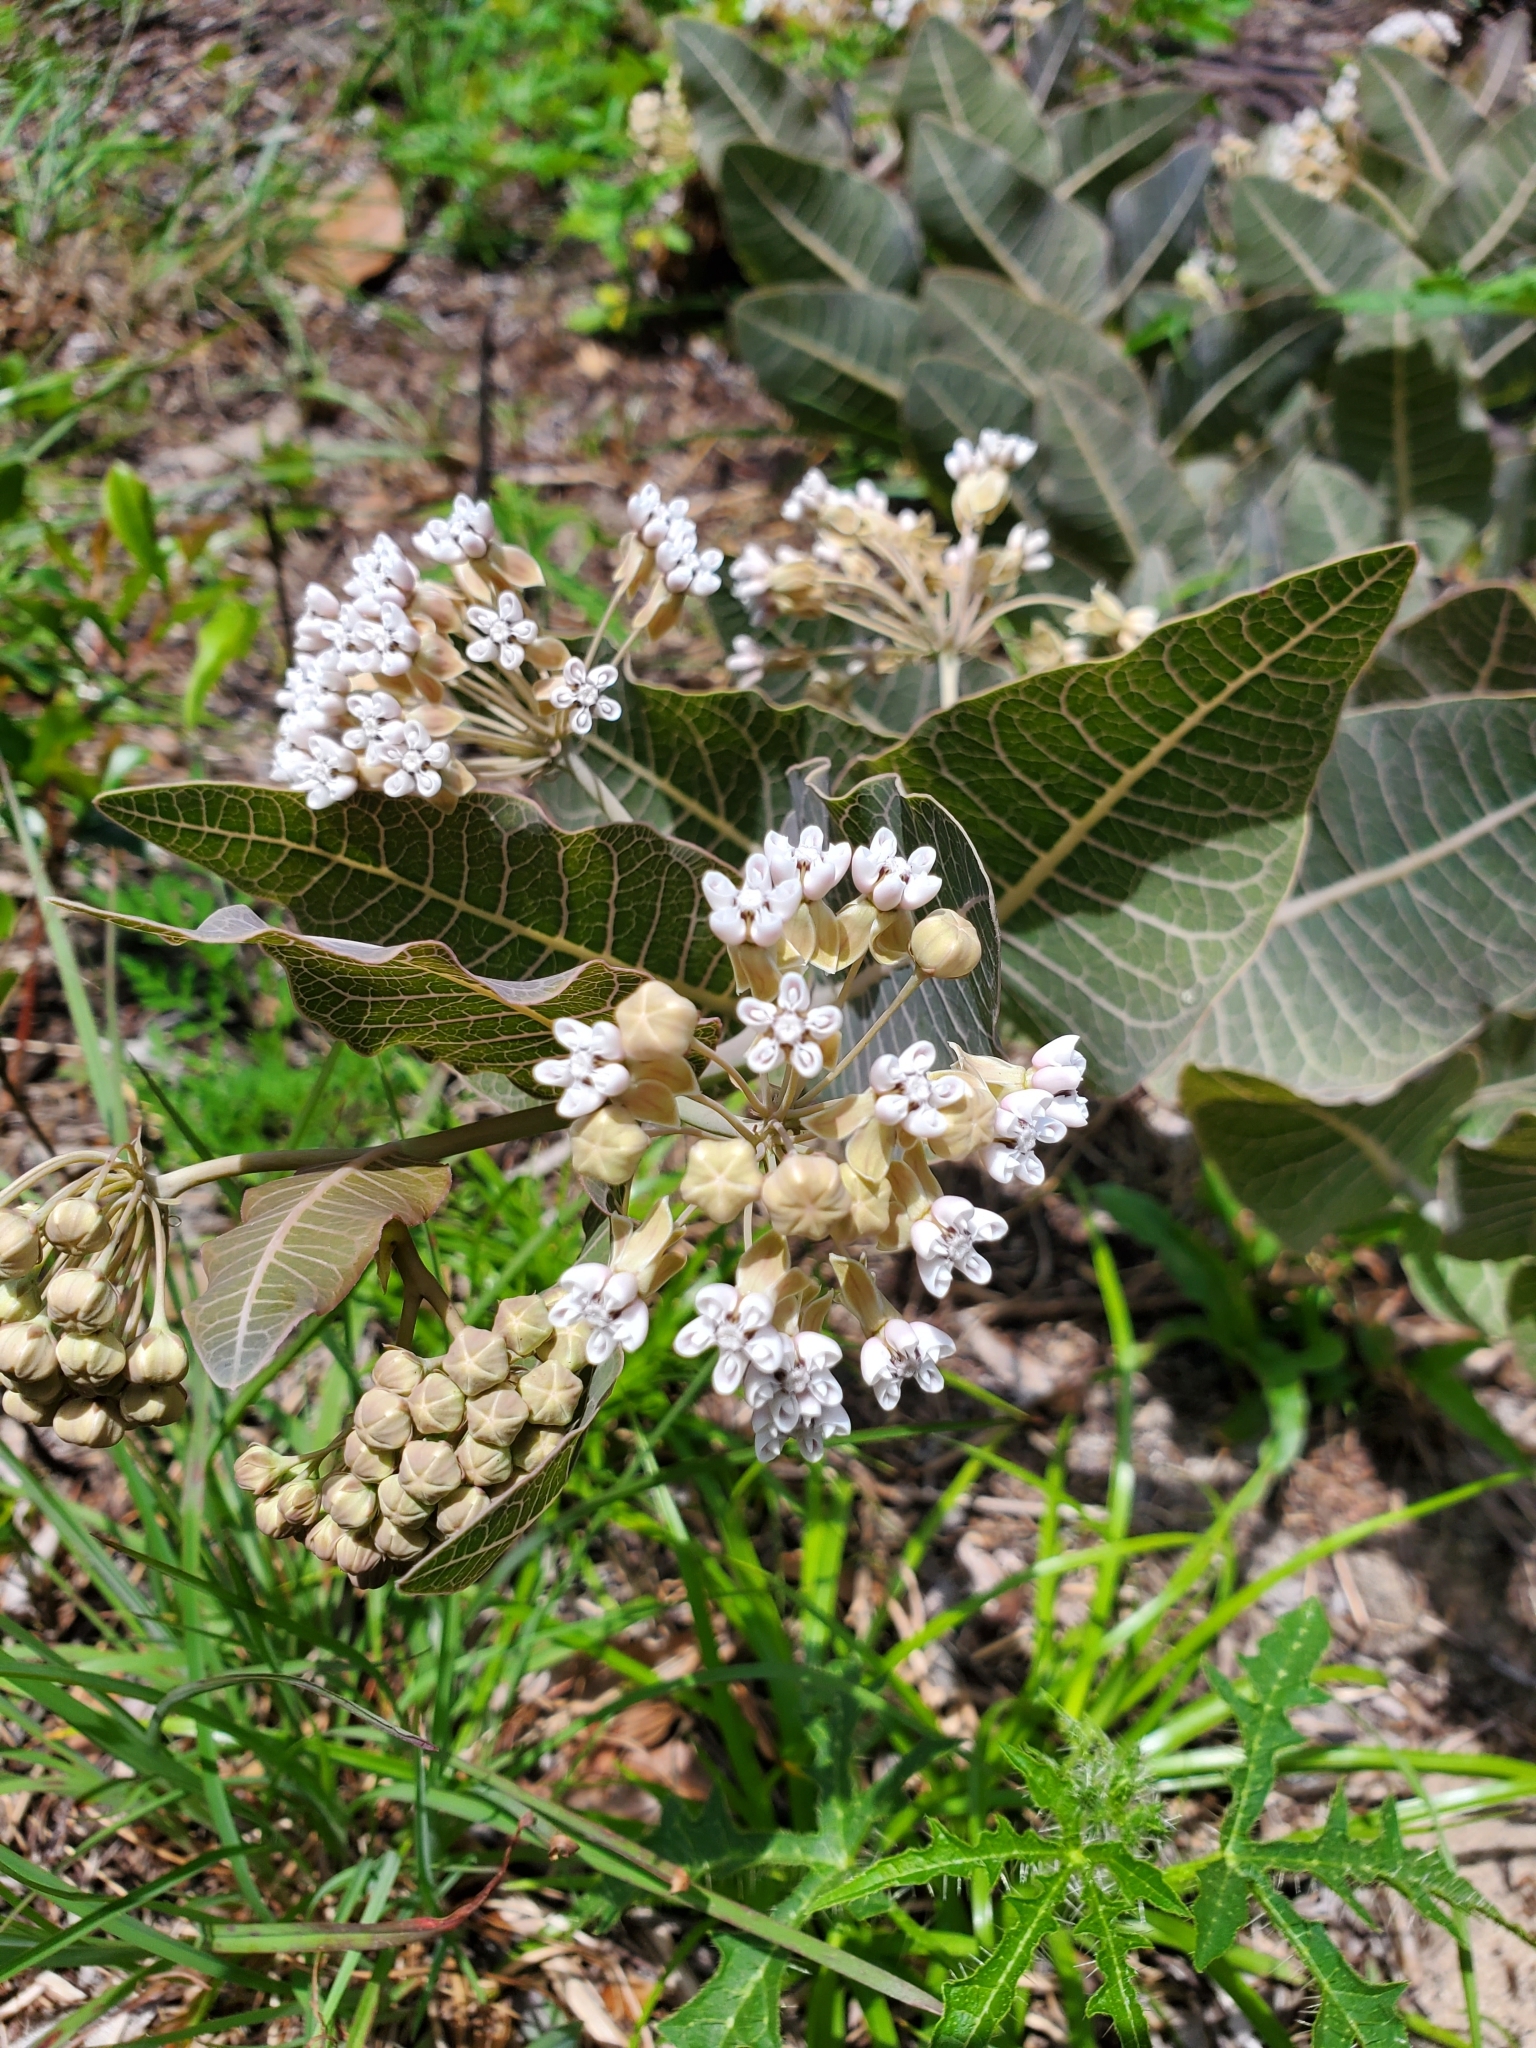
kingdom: Plantae
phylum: Tracheophyta
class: Magnoliopsida
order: Gentianales
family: Apocynaceae
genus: Asclepias
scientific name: Asclepias humistrata
